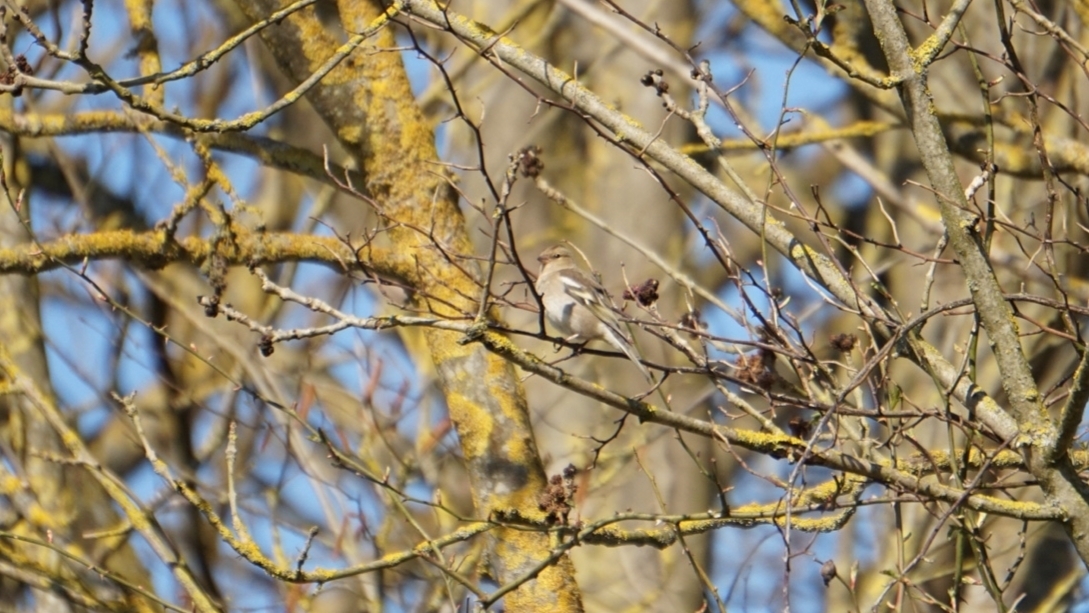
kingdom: Animalia
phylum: Chordata
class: Aves
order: Passeriformes
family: Fringillidae
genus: Fringilla
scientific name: Fringilla coelebs
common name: Common chaffinch
